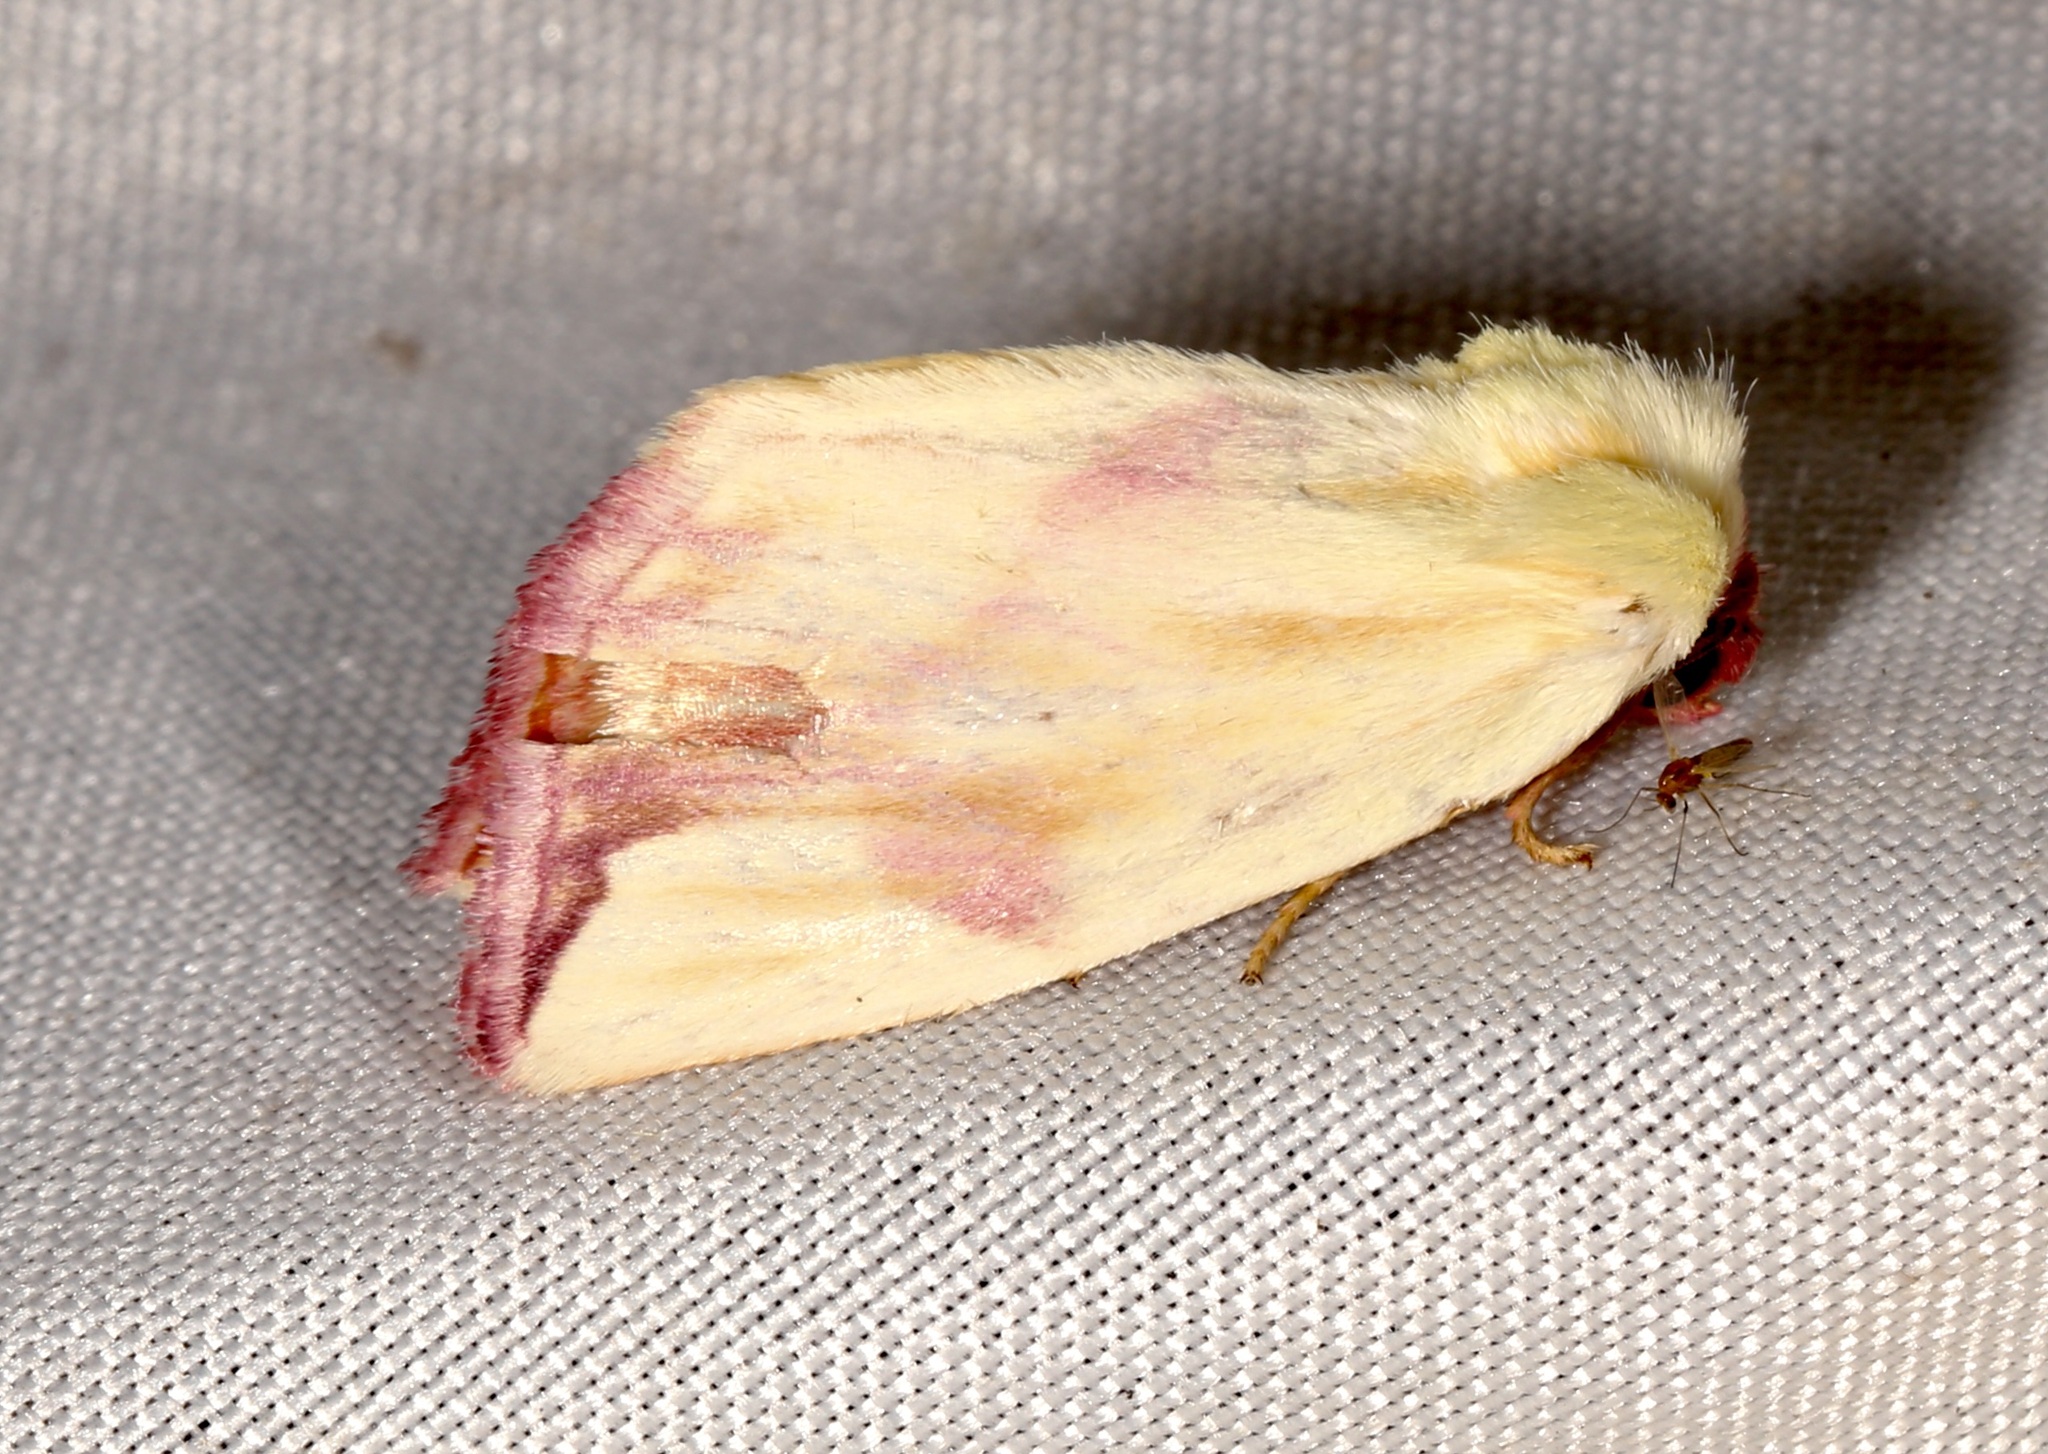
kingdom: Animalia
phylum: Arthropoda
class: Insecta
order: Lepidoptera
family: Noctuidae
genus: Thurberiphaga
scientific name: Thurberiphaga diffusa
